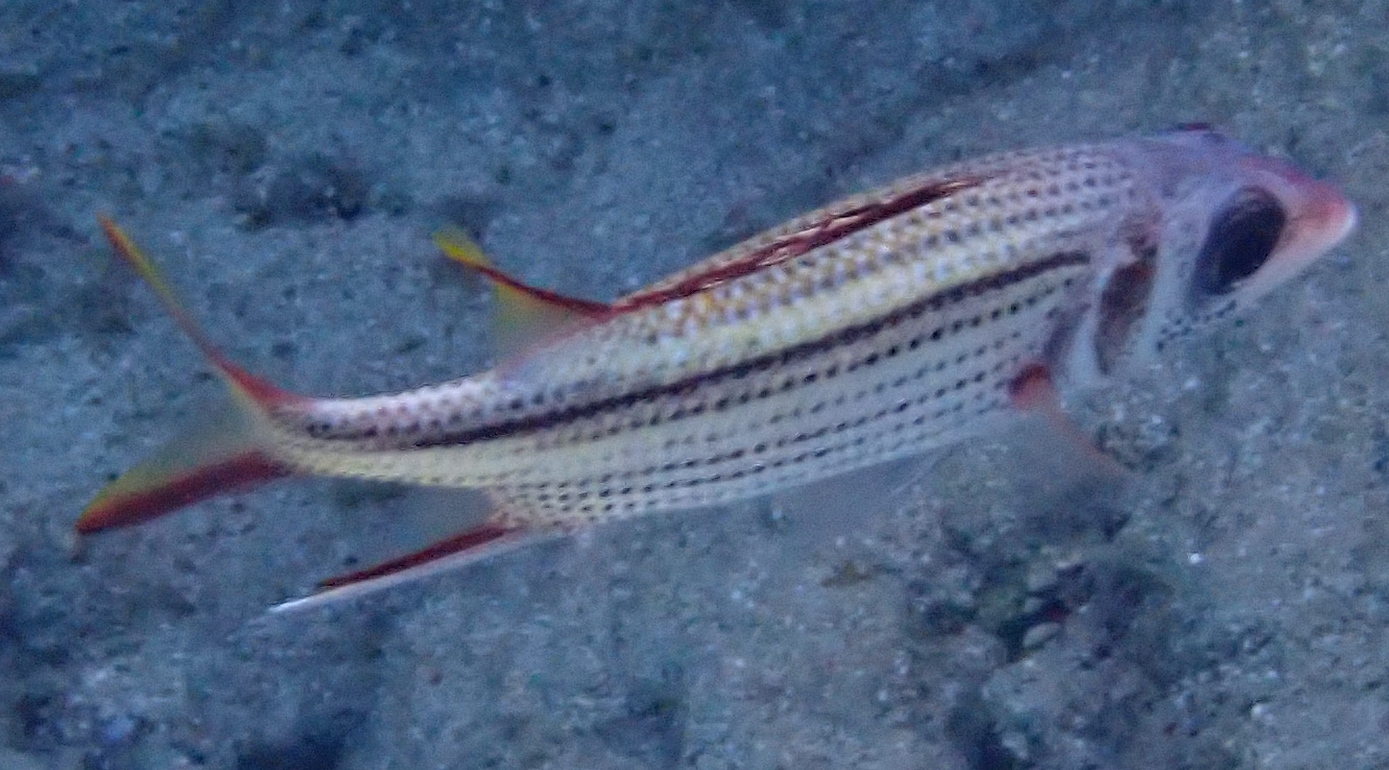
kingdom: Animalia
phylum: Chordata
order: Beryciformes
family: Holocentridae
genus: Neoniphon
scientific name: Neoniphon sammara
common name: Sammara squirrelfish
